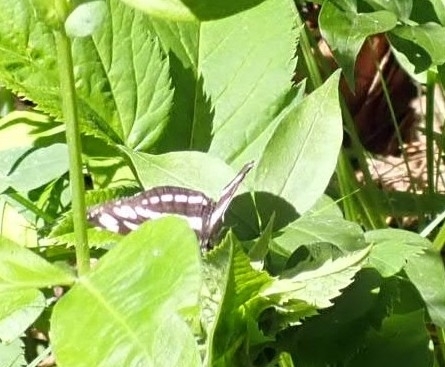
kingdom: Animalia
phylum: Arthropoda
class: Insecta
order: Lepidoptera
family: Nymphalidae
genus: Neptis
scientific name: Neptis sappho
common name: Common glider
